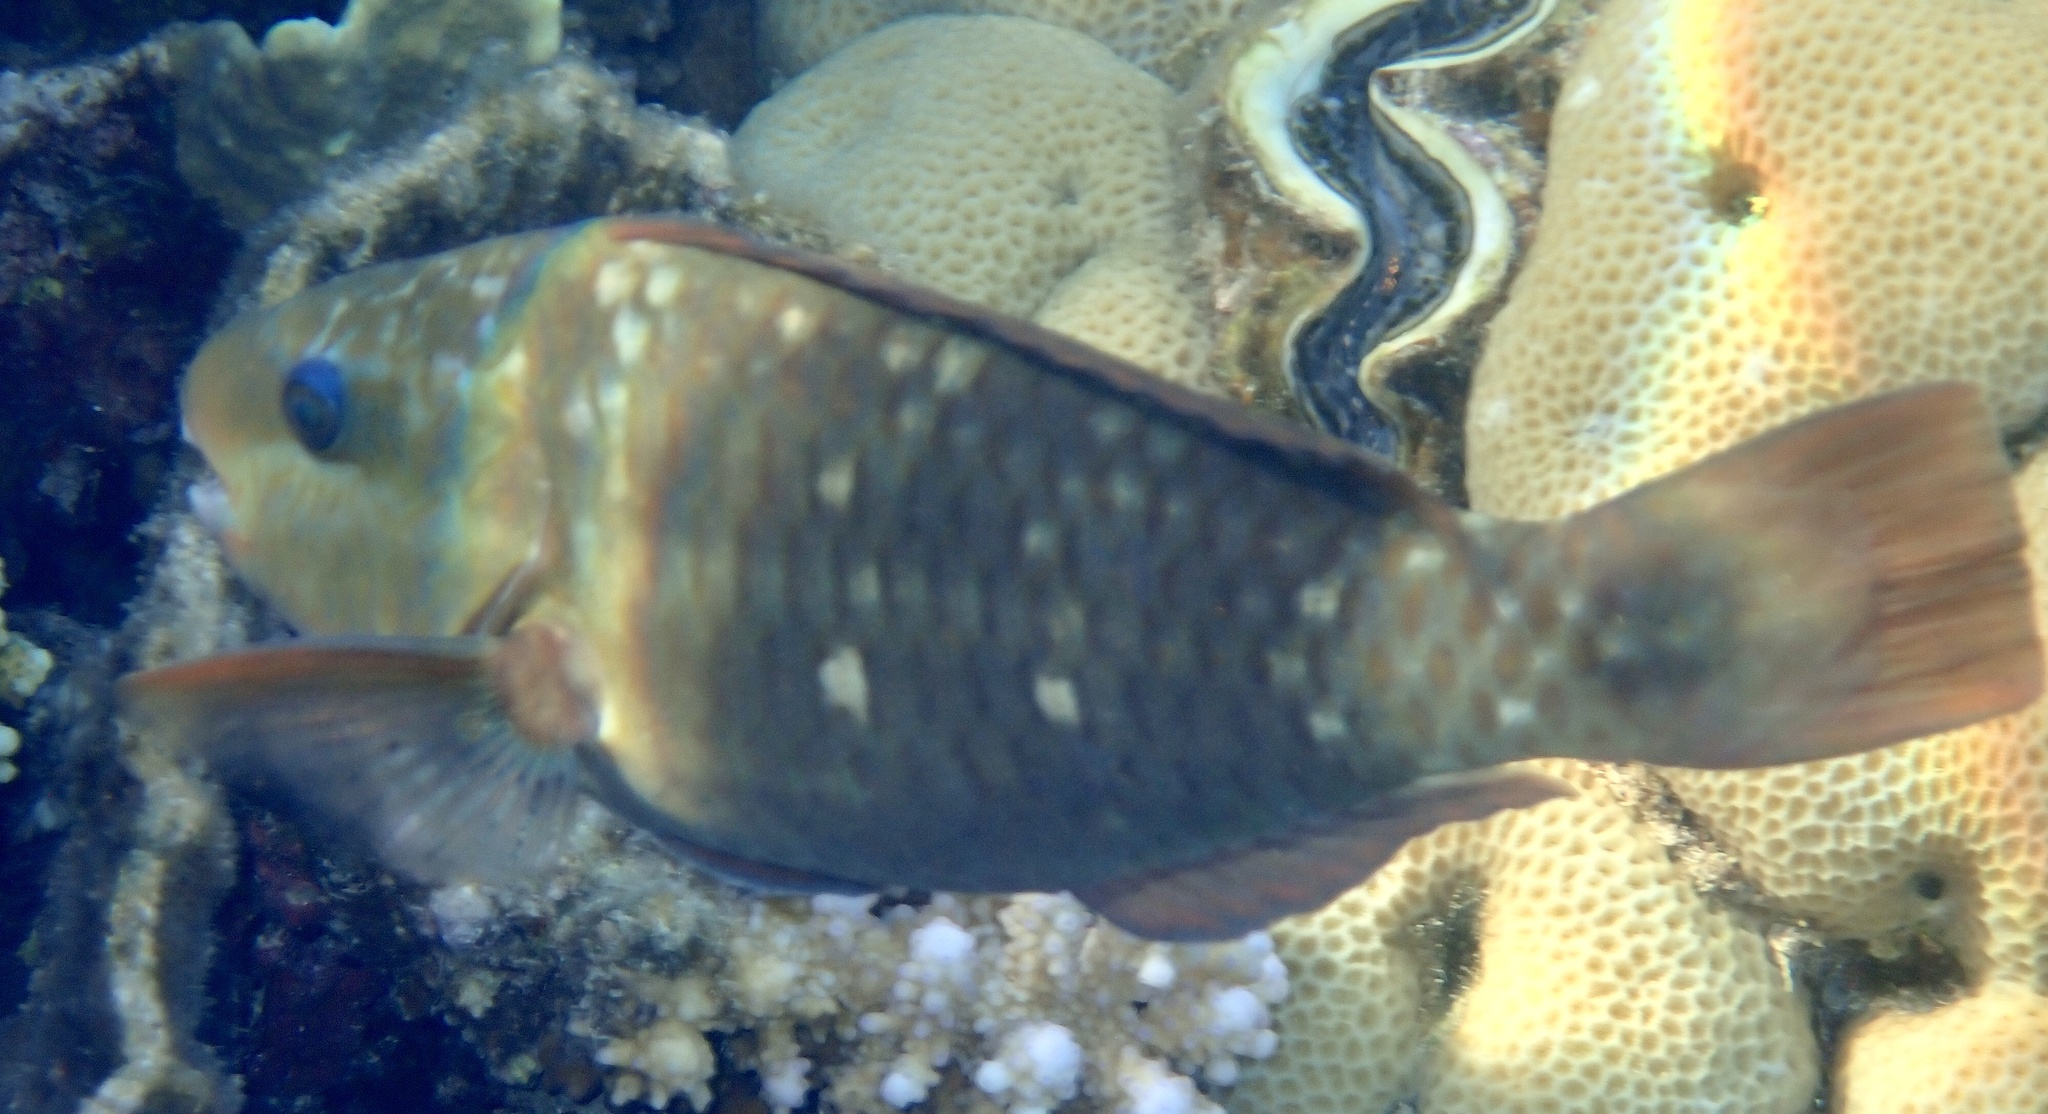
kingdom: Animalia
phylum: Chordata
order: Perciformes
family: Scaridae
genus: Chlorurus
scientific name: Chlorurus sordidus
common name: Bullethead parrotfish
